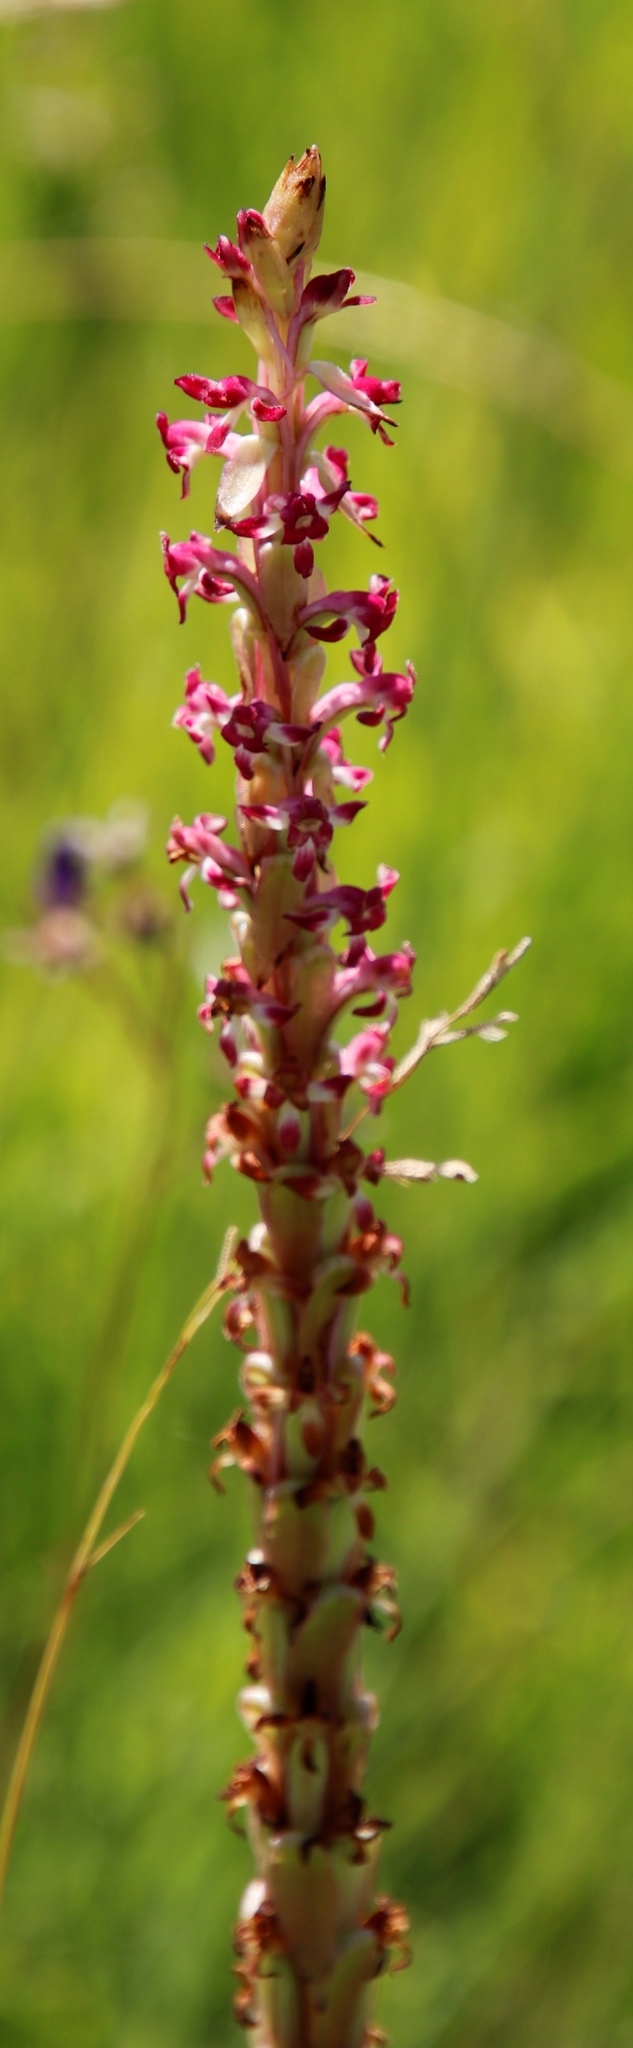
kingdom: Plantae
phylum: Tracheophyta
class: Liliopsida
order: Asparagales
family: Orchidaceae
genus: Satyrium
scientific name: Satyrium longicauda
